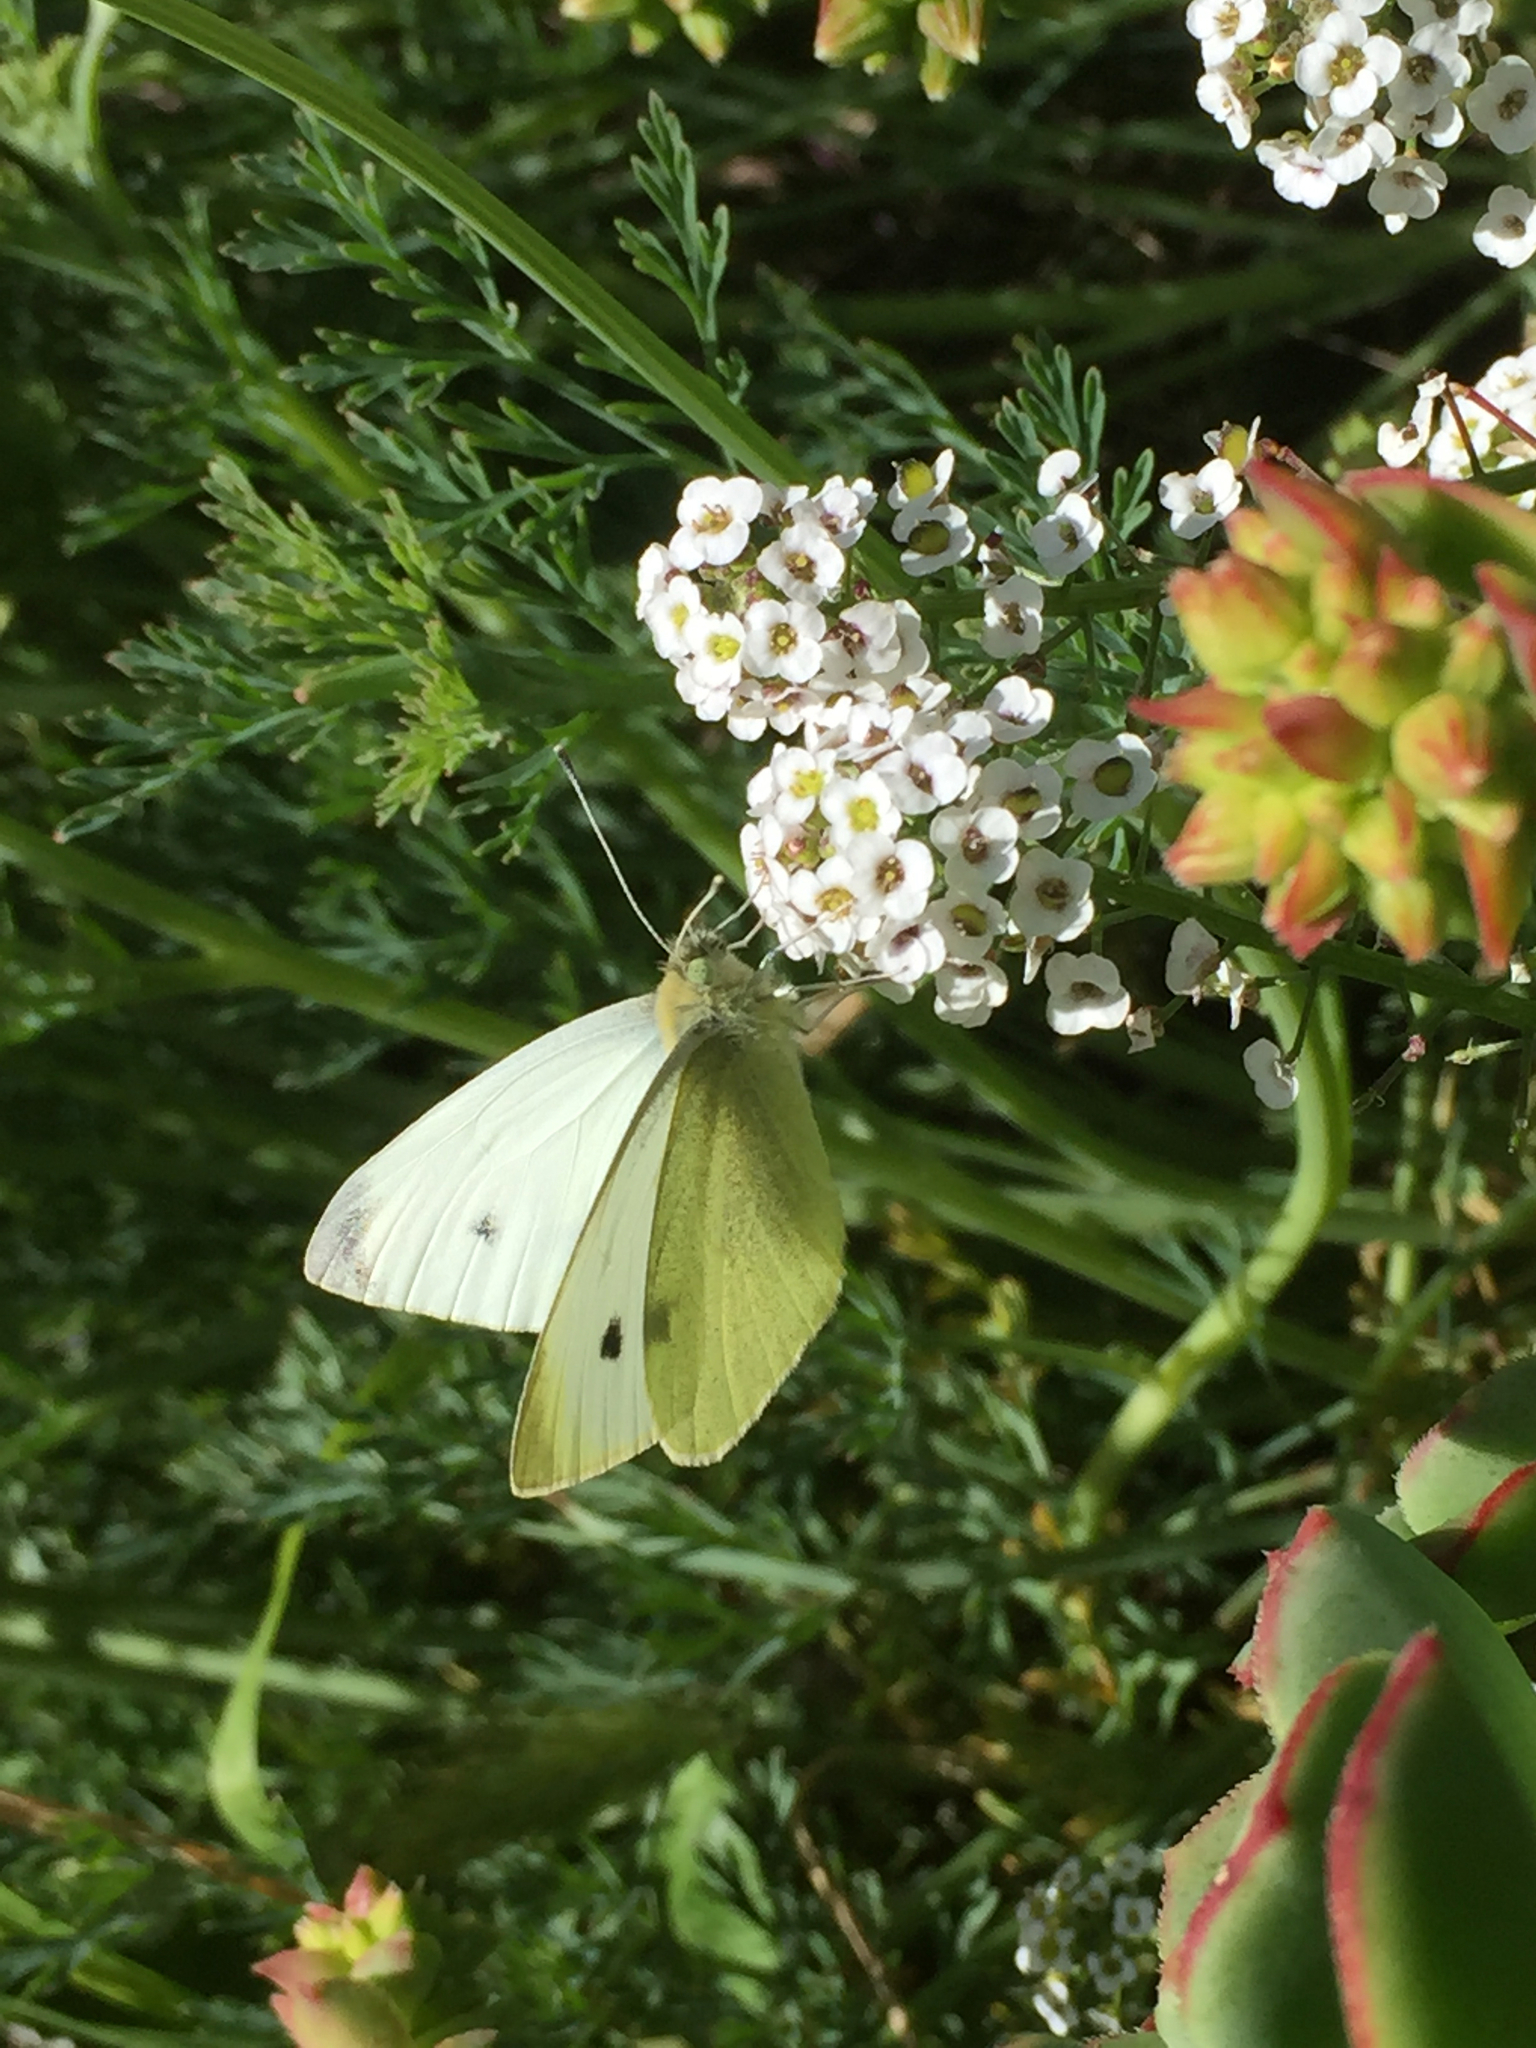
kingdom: Animalia
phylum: Arthropoda
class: Insecta
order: Lepidoptera
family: Pieridae
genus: Pieris
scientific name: Pieris rapae
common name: Small white
